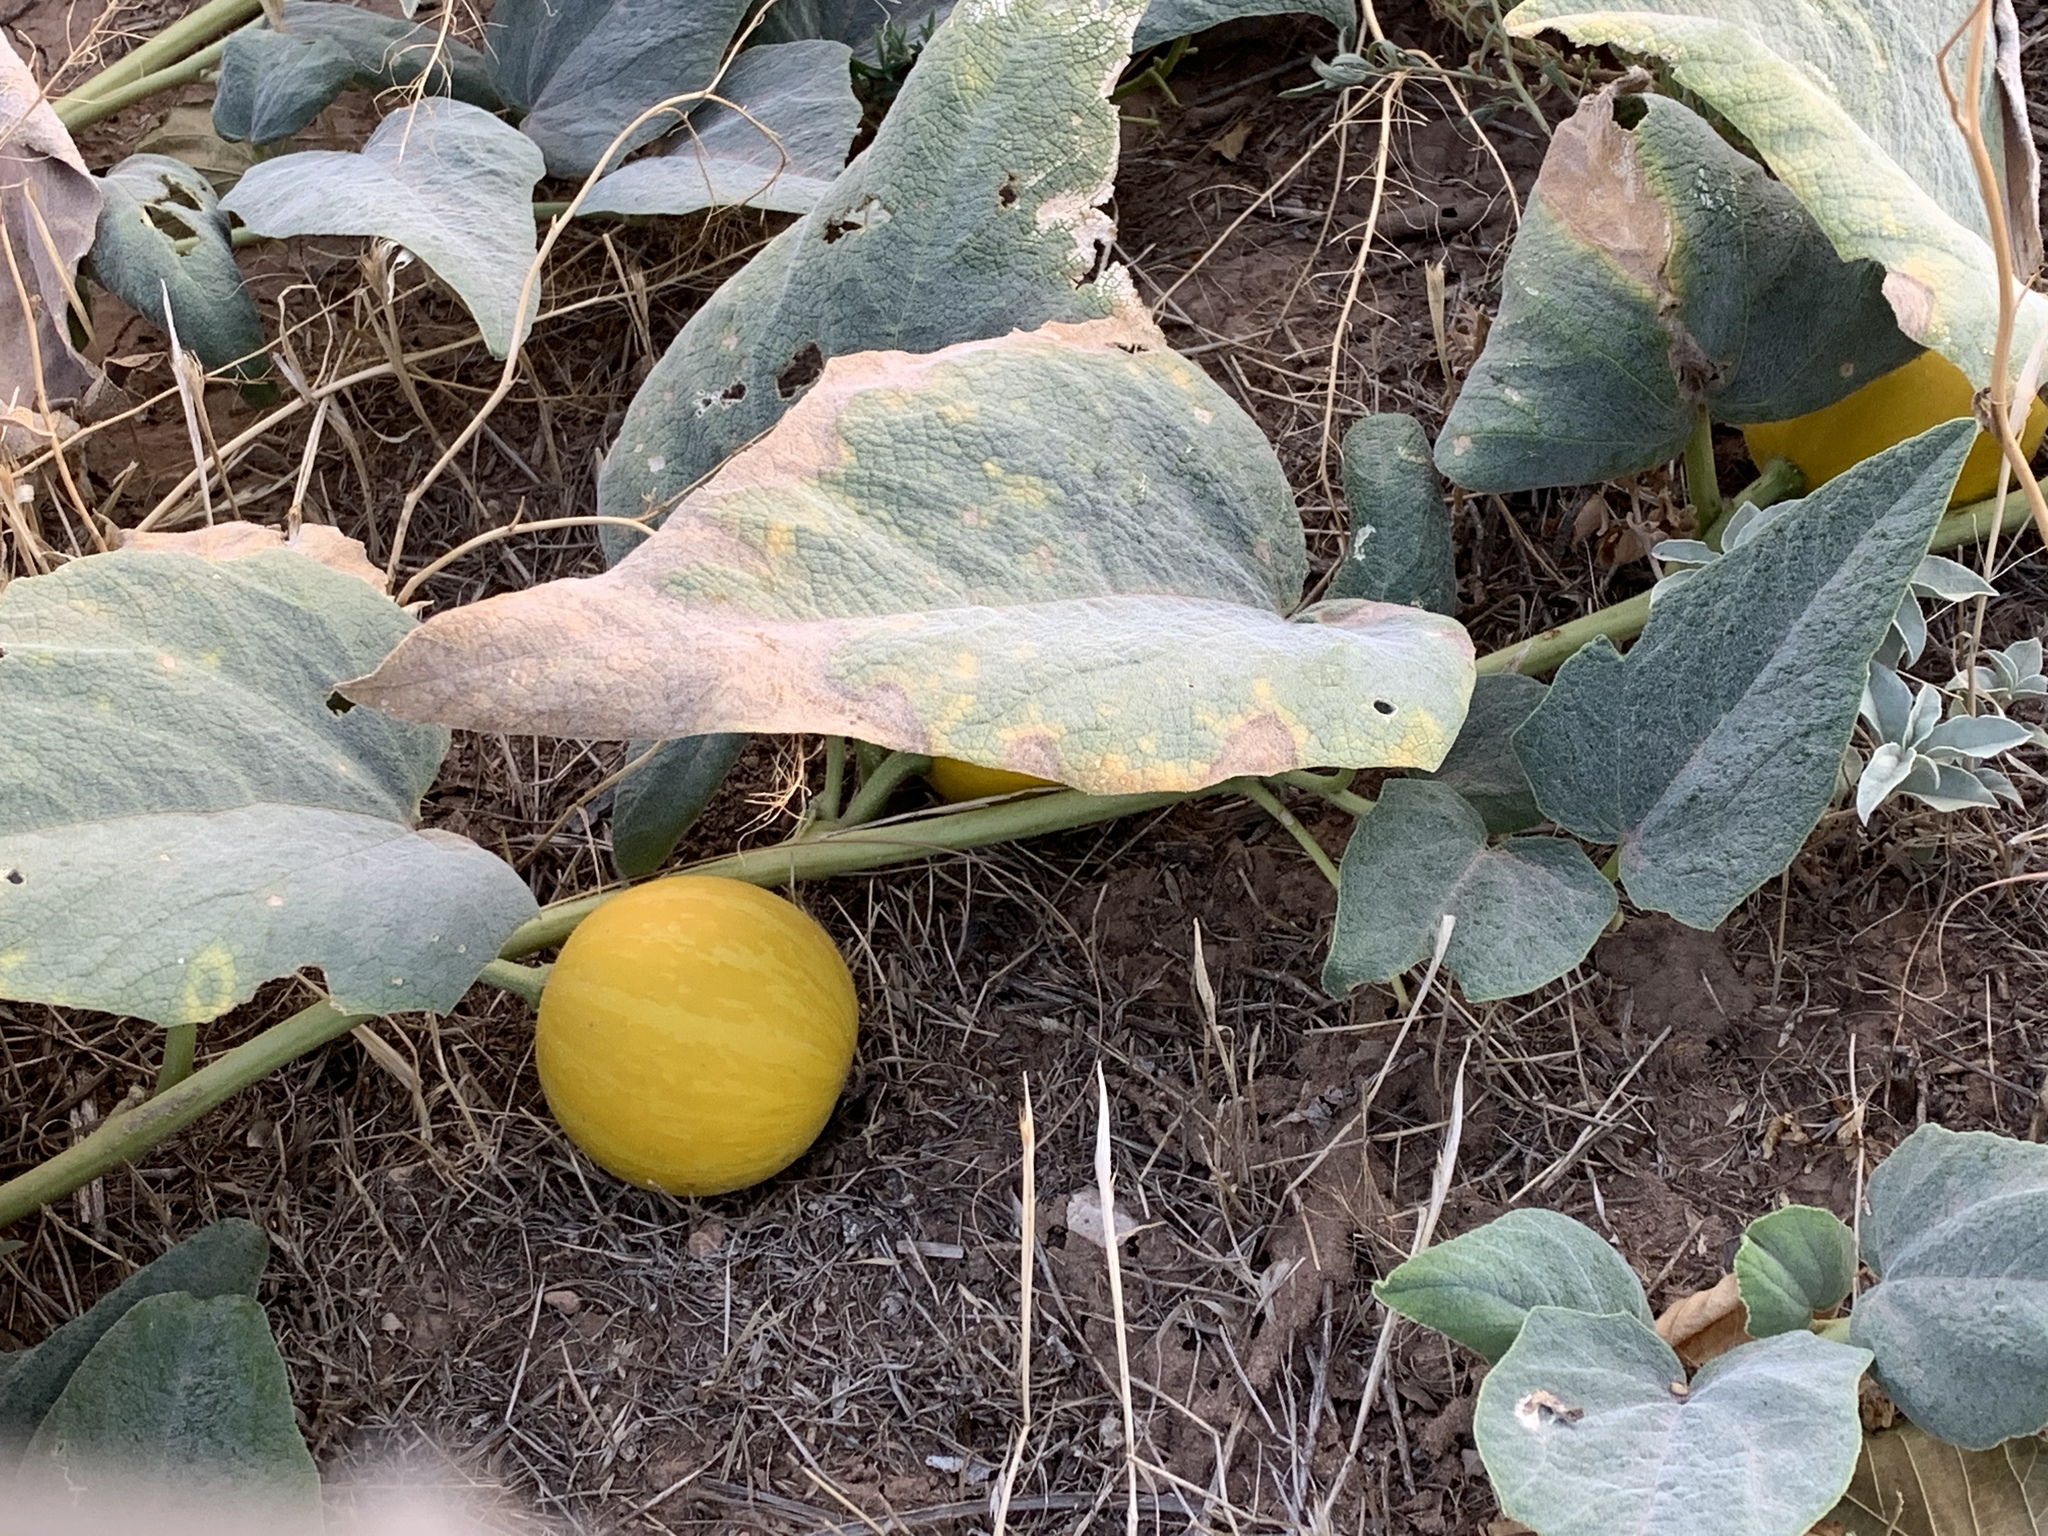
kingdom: Plantae
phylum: Tracheophyta
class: Magnoliopsida
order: Cucurbitales
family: Cucurbitaceae
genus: Cucurbita
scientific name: Cucurbita foetidissima
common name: Buffalo gourd
